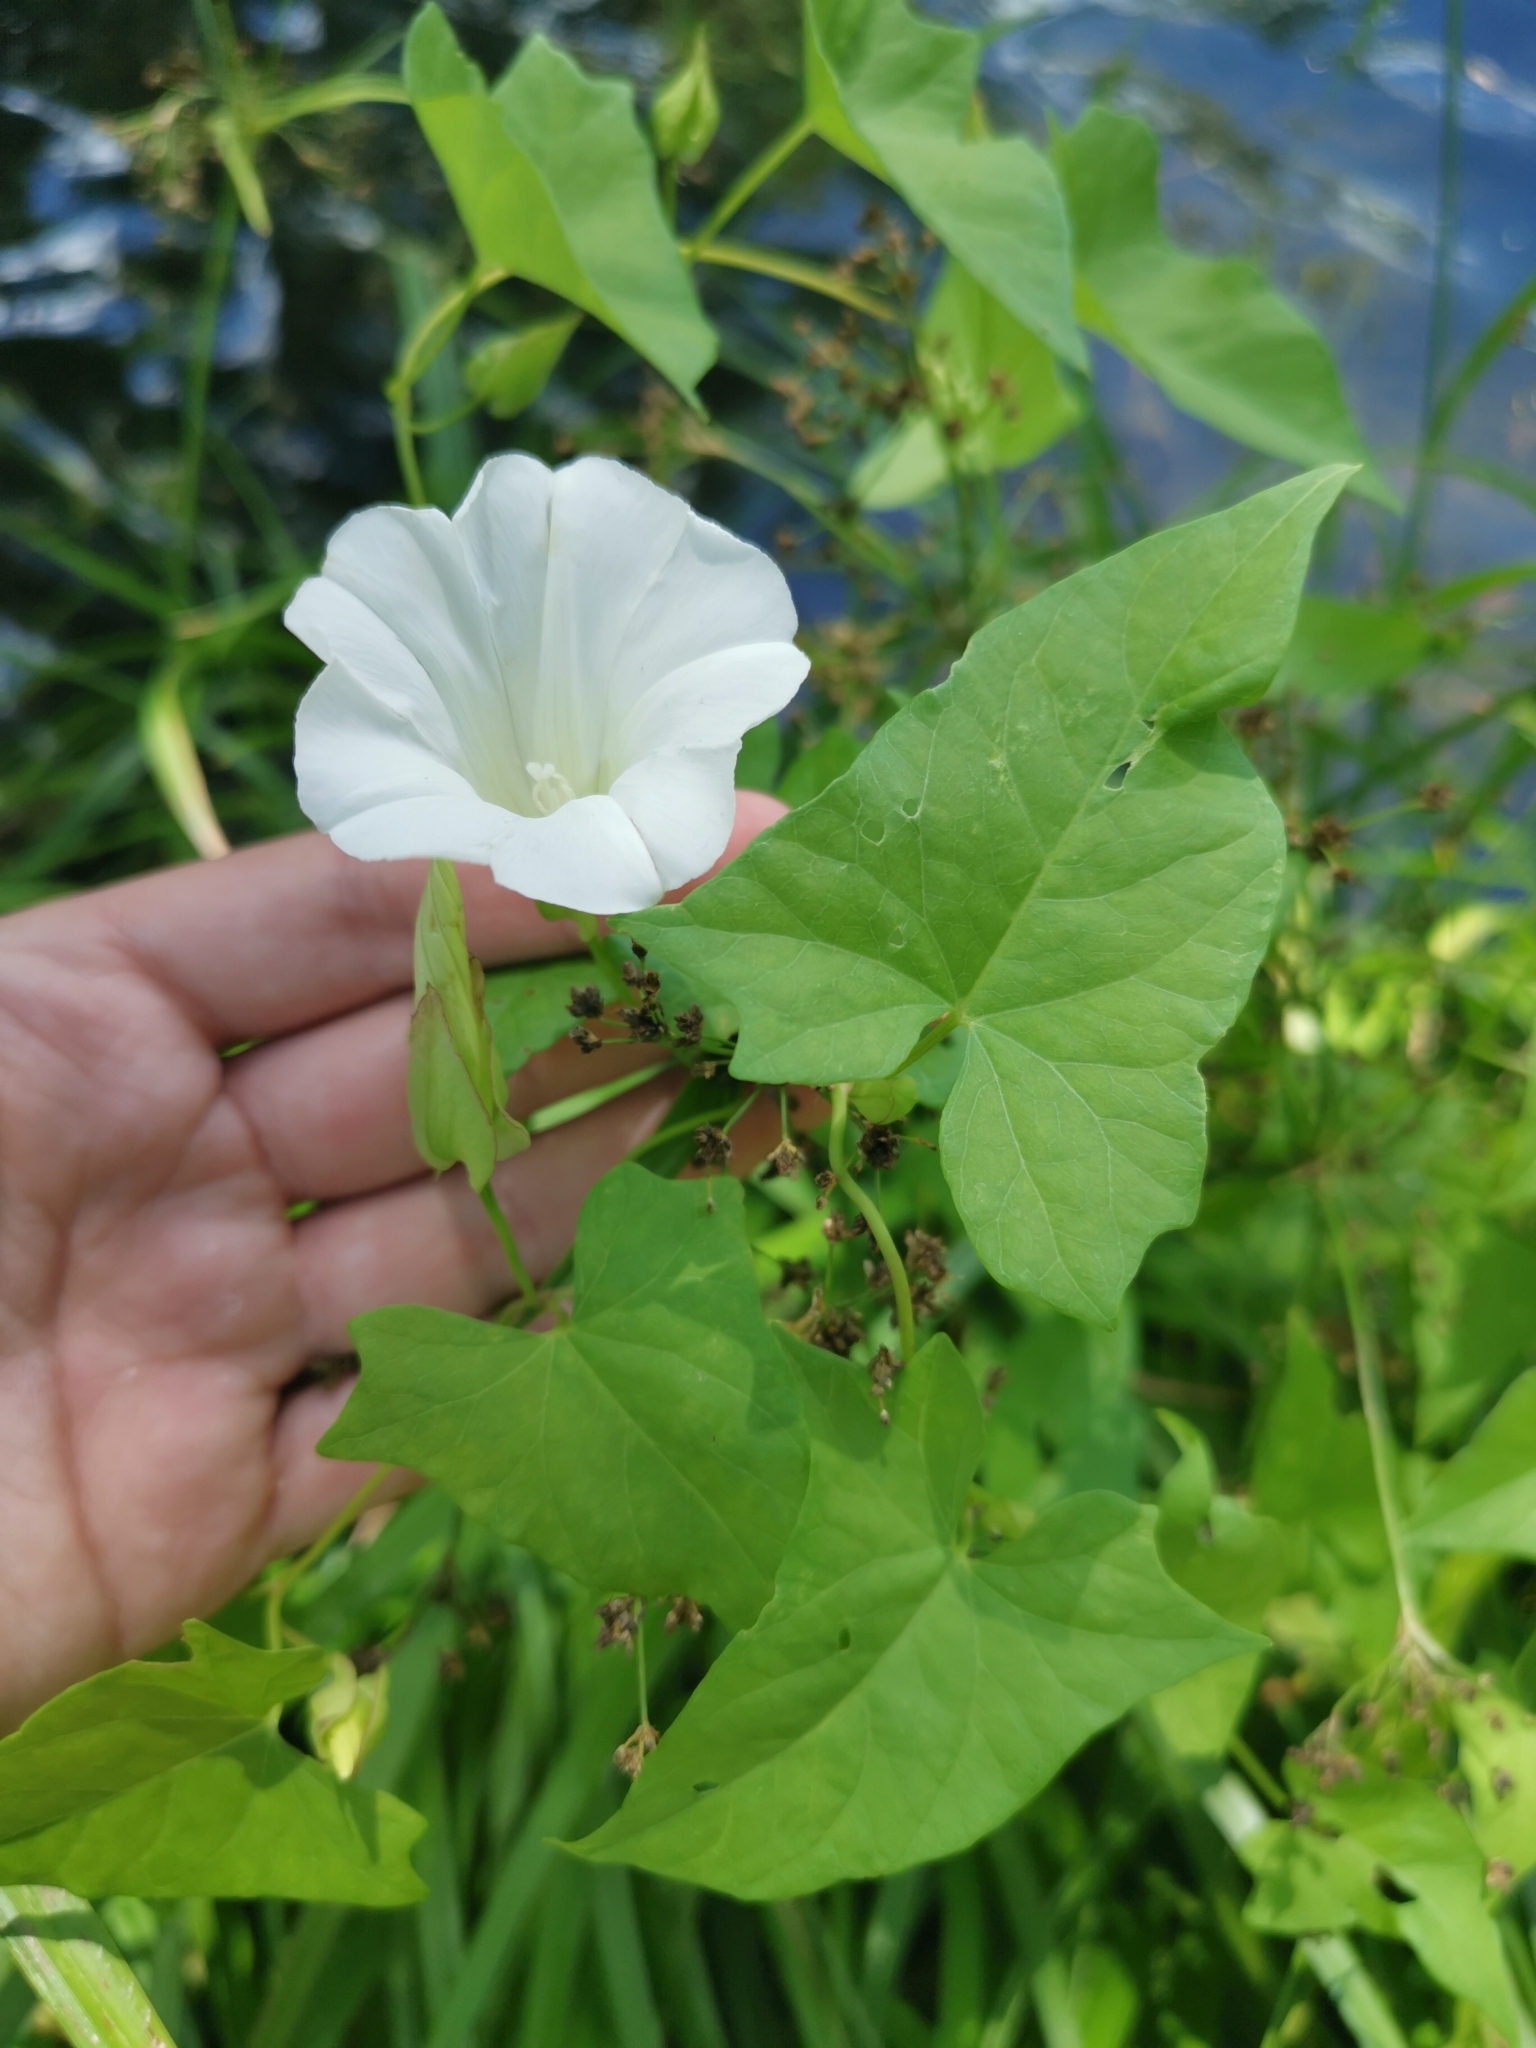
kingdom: Plantae
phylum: Tracheophyta
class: Magnoliopsida
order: Solanales
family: Convolvulaceae
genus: Calystegia
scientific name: Calystegia sepium
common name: Hedge bindweed
